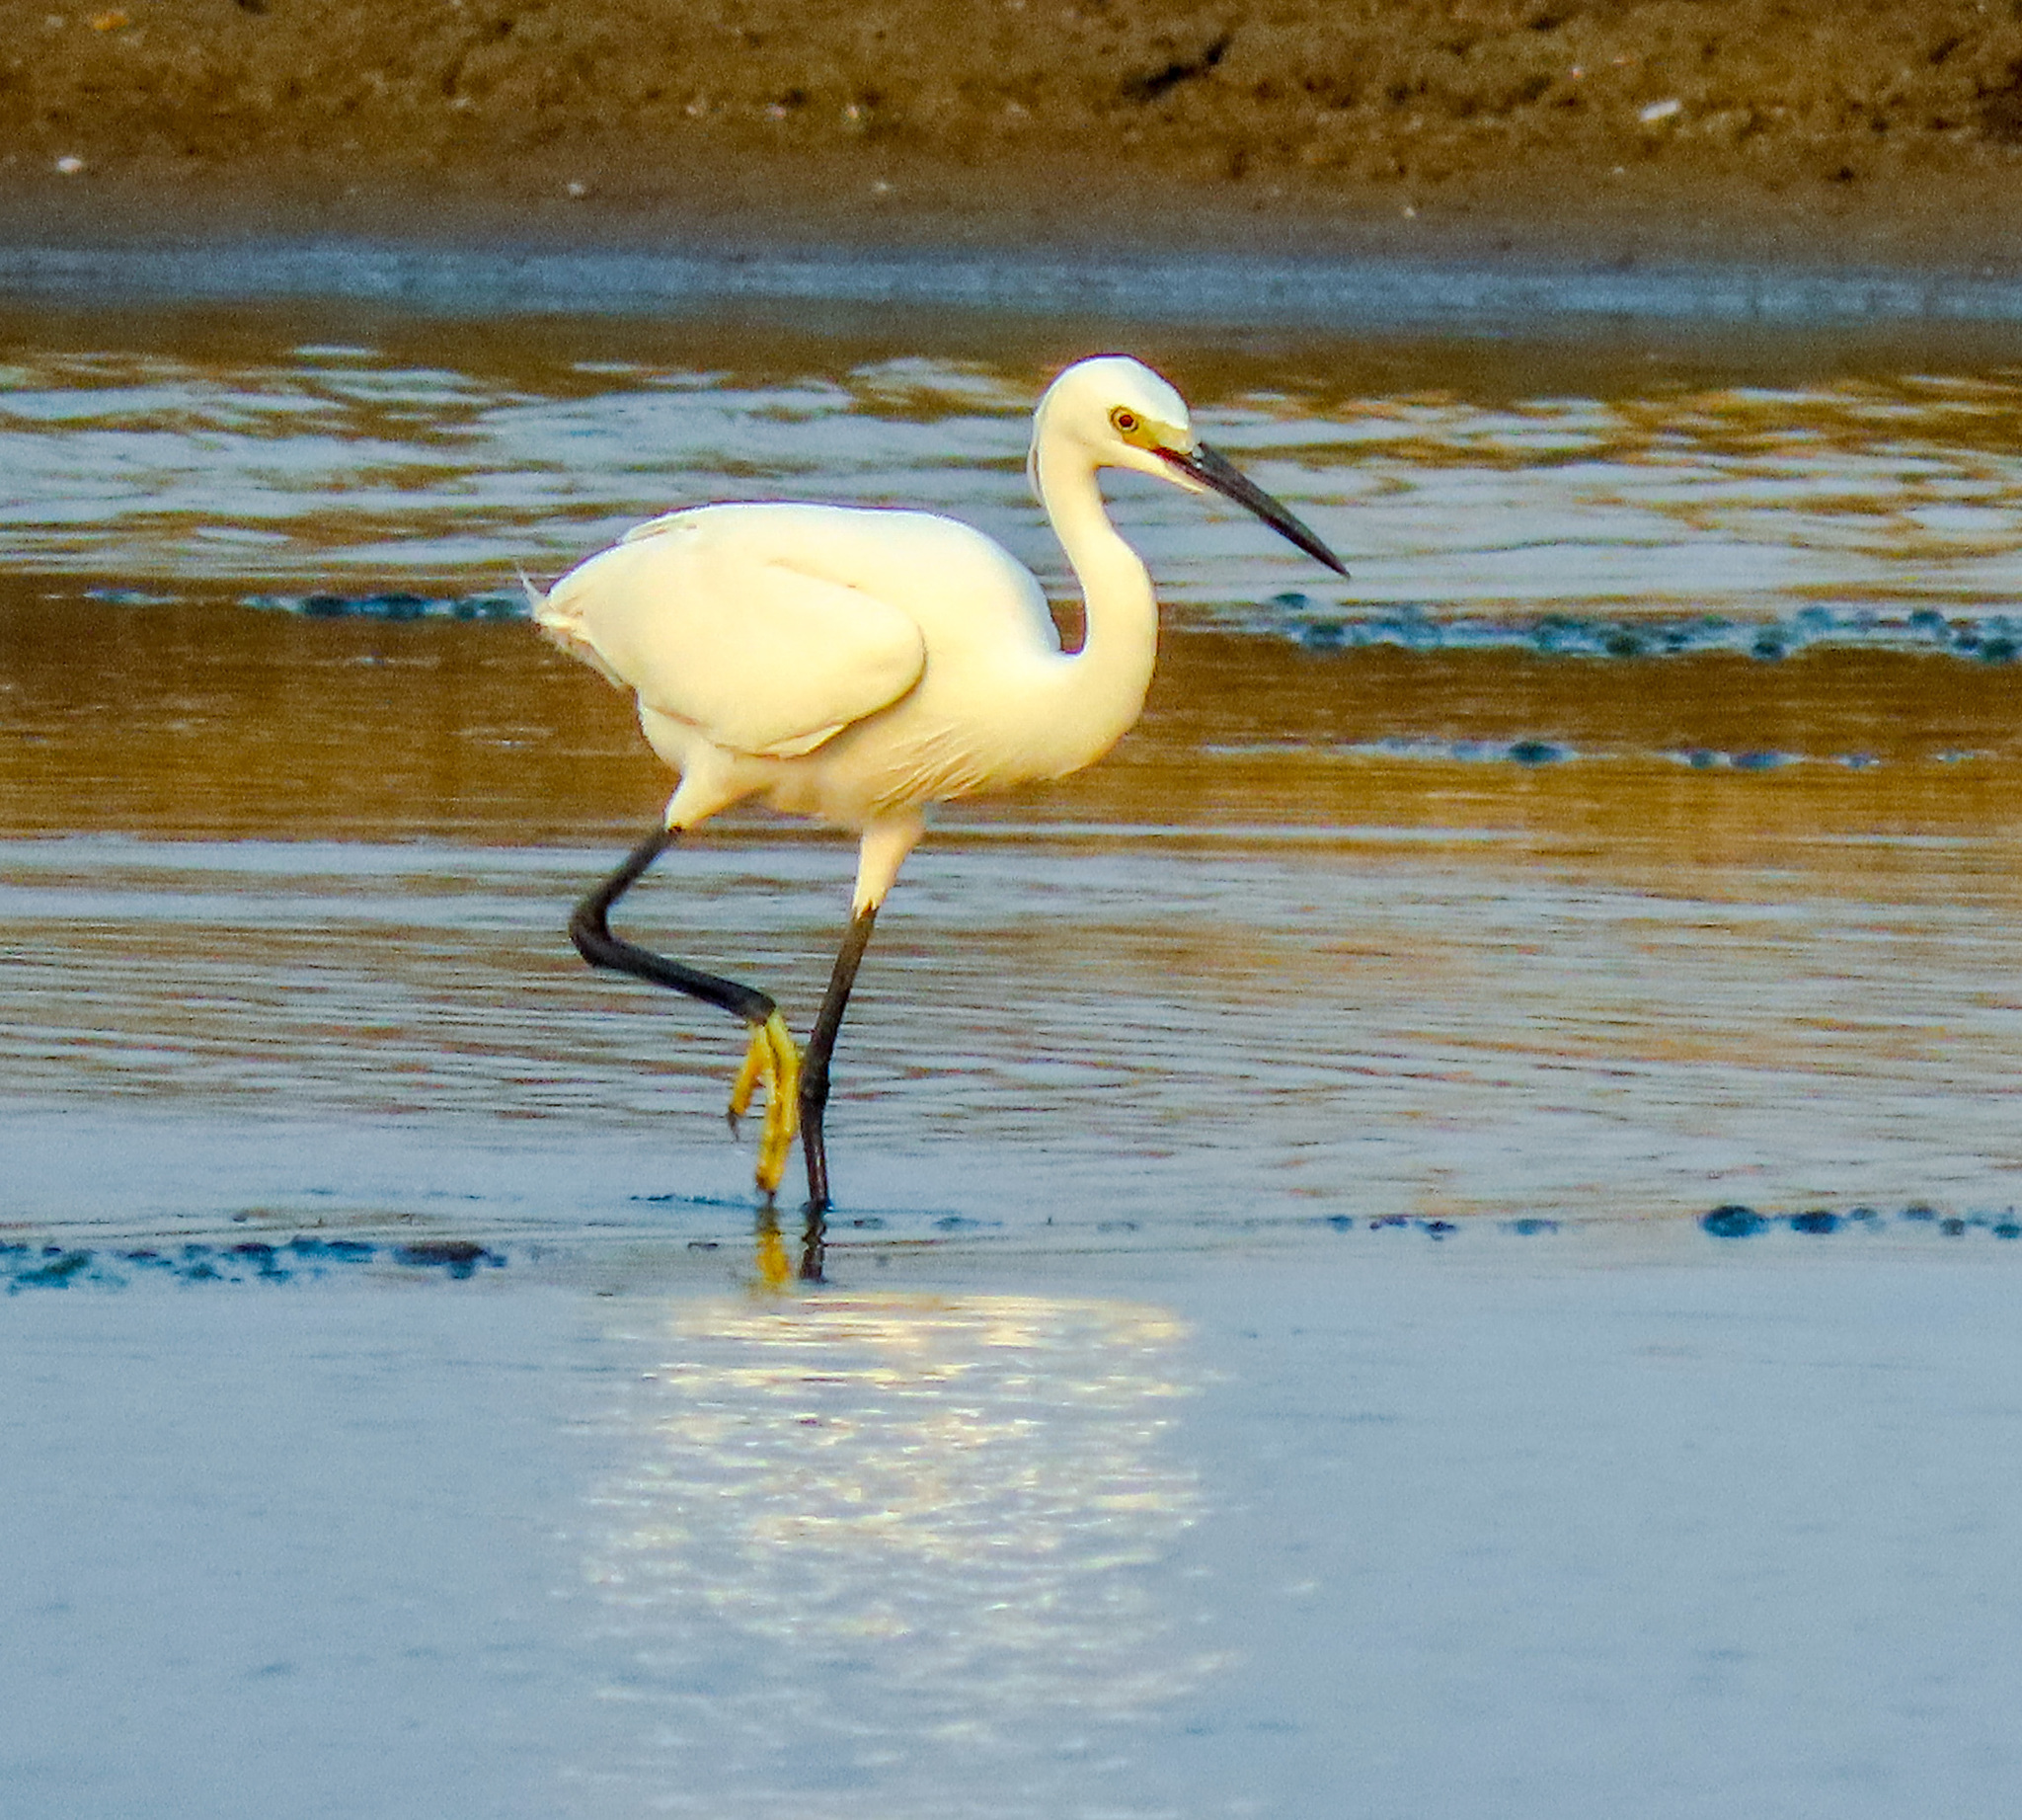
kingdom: Animalia
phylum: Chordata
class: Aves
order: Pelecaniformes
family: Ardeidae
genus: Egretta
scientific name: Egretta garzetta
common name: Little egret
